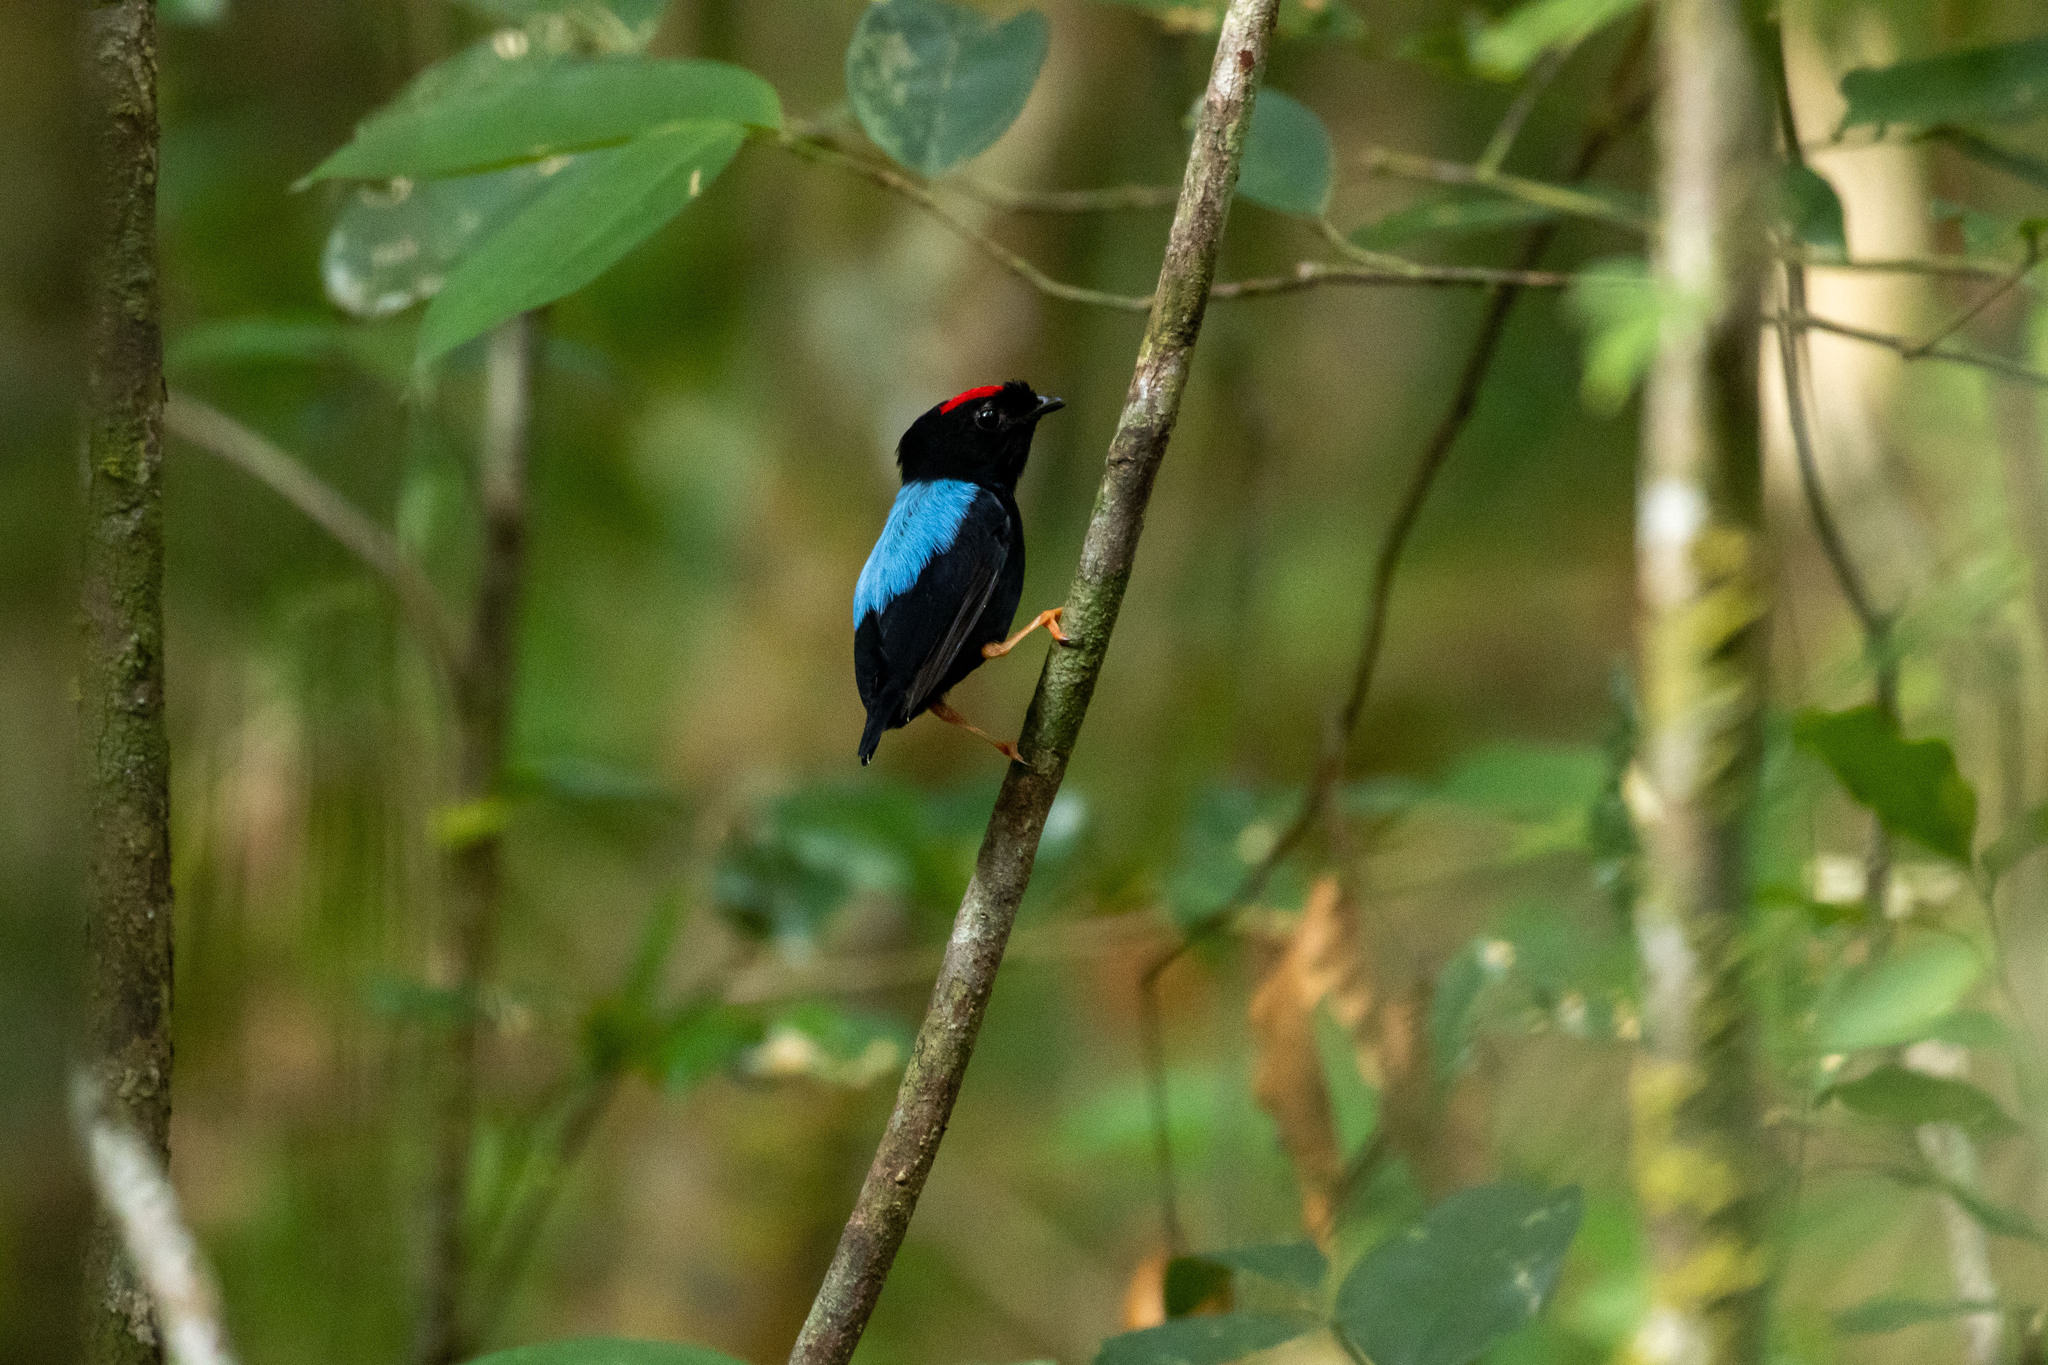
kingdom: Animalia
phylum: Chordata
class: Aves
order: Passeriformes
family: Pipridae
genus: Chiroxiphia
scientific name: Chiroxiphia pareola
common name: Blue-backed manakin
